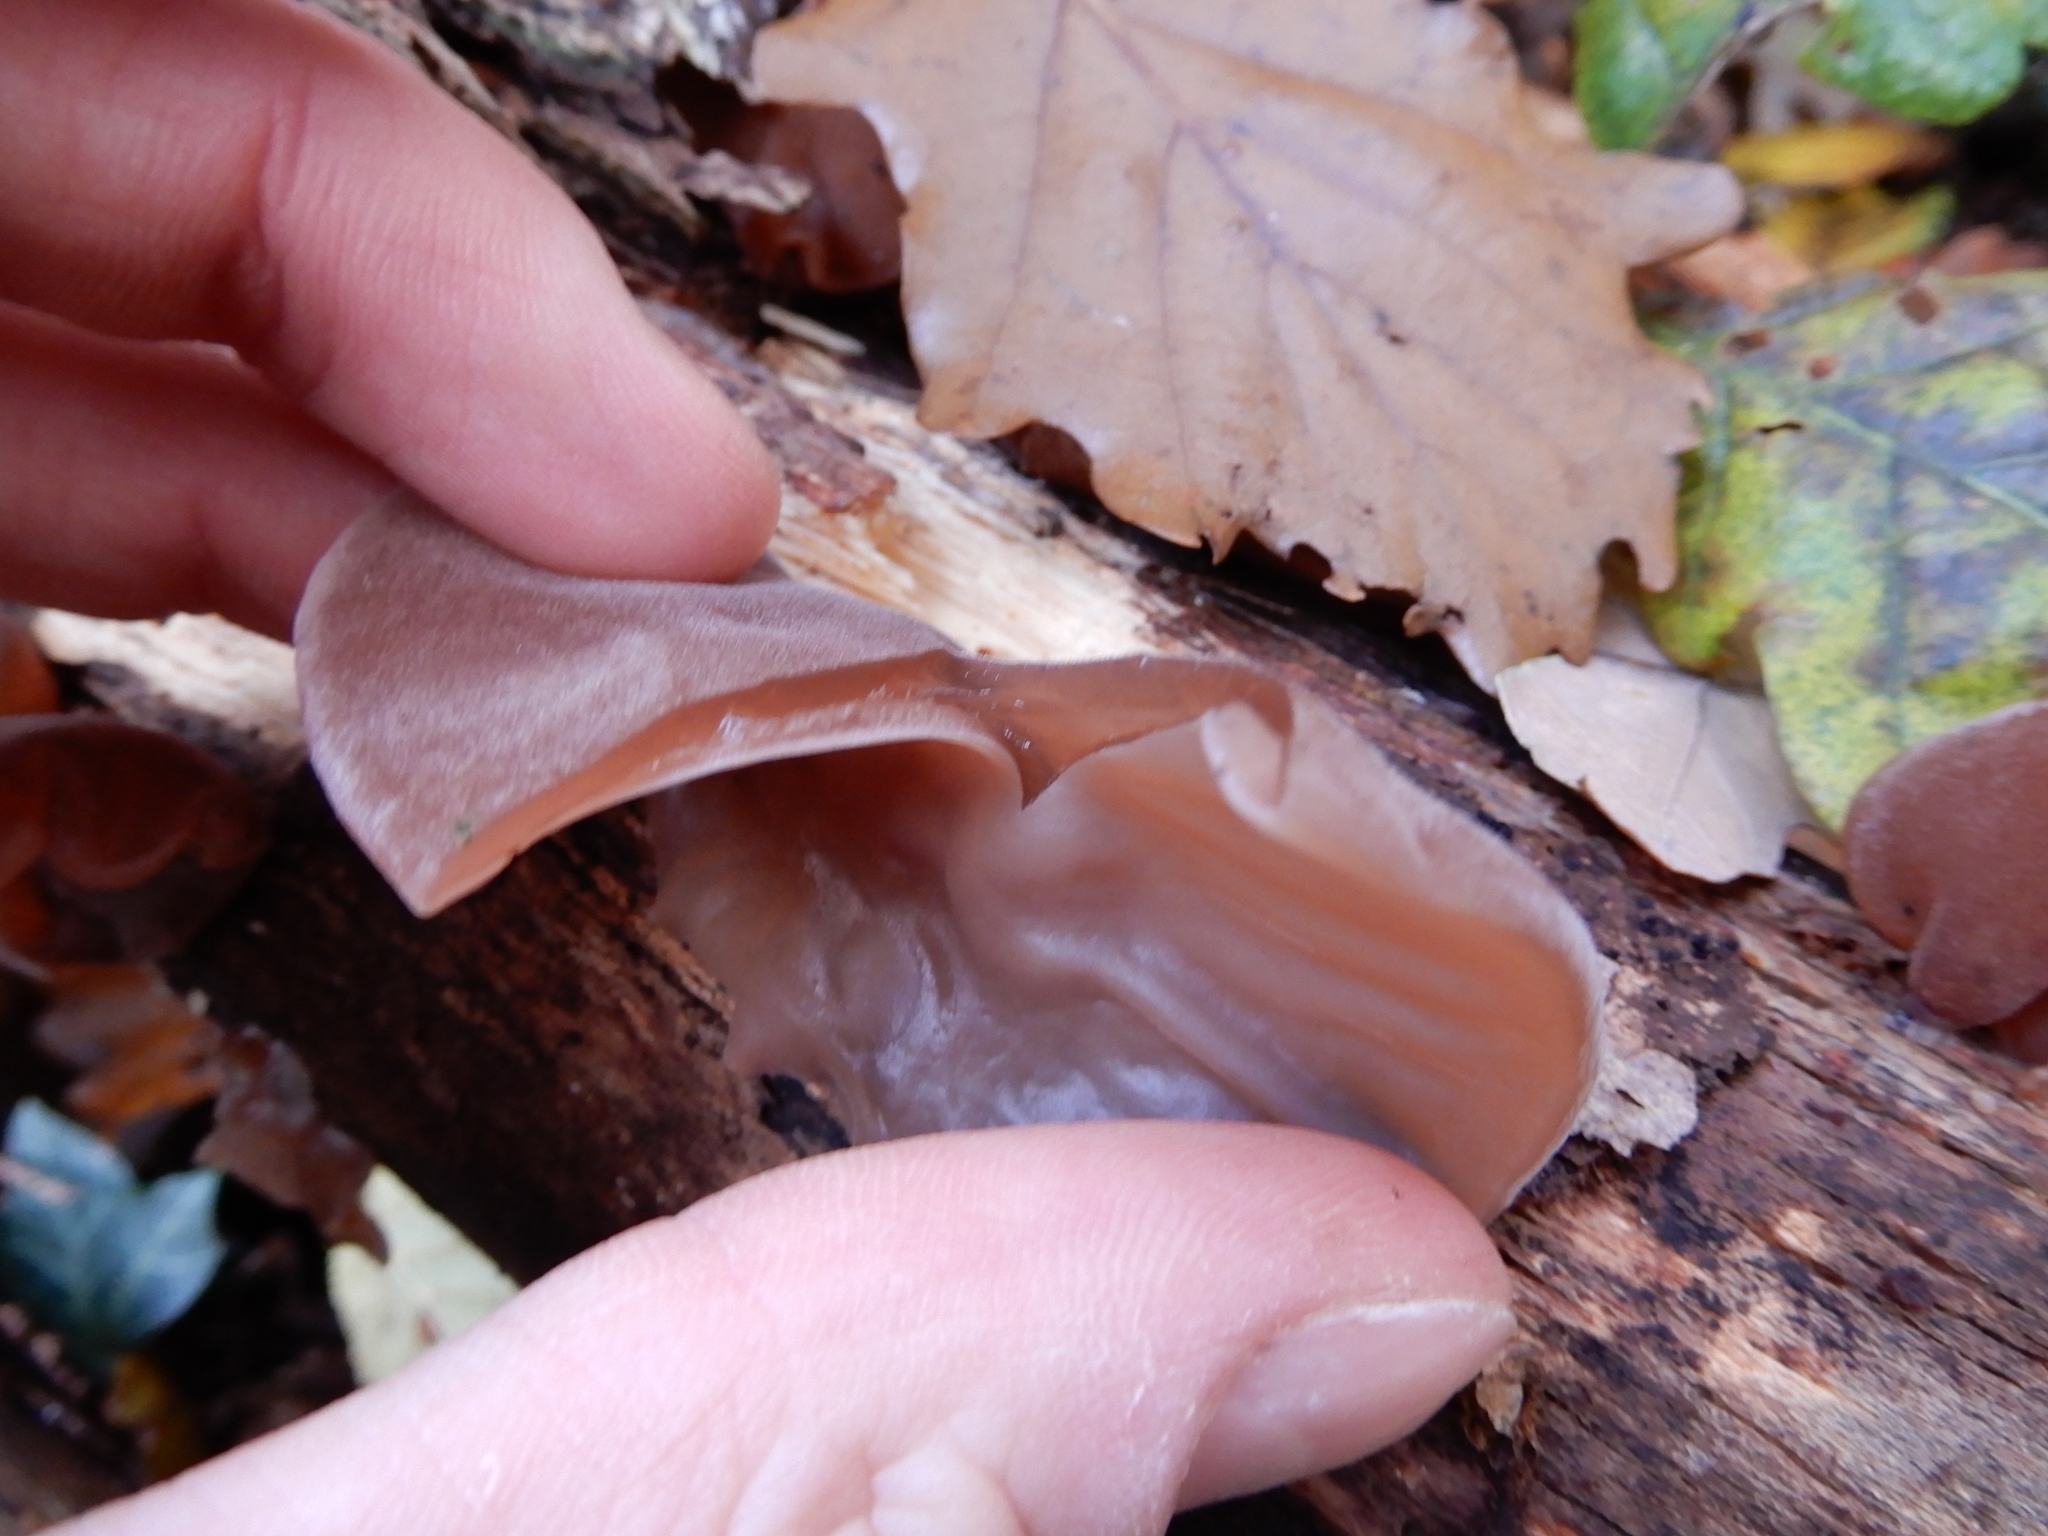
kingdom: Fungi
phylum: Basidiomycota
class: Agaricomycetes
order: Auriculariales
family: Auriculariaceae
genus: Auricularia
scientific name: Auricularia auricula-judae
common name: Jelly ear
